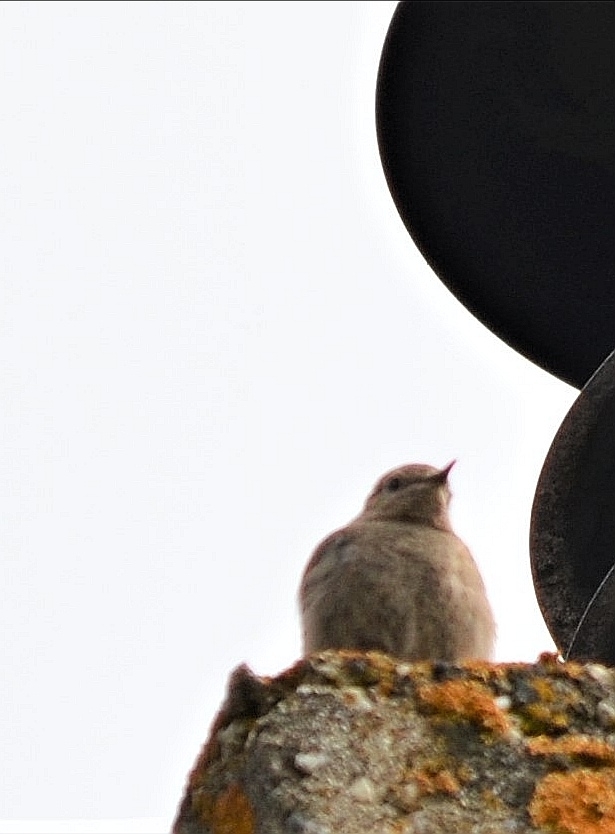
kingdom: Animalia
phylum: Chordata
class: Aves
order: Passeriformes
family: Muscicapidae
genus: Phoenicurus
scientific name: Phoenicurus ochruros
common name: Black redstart
